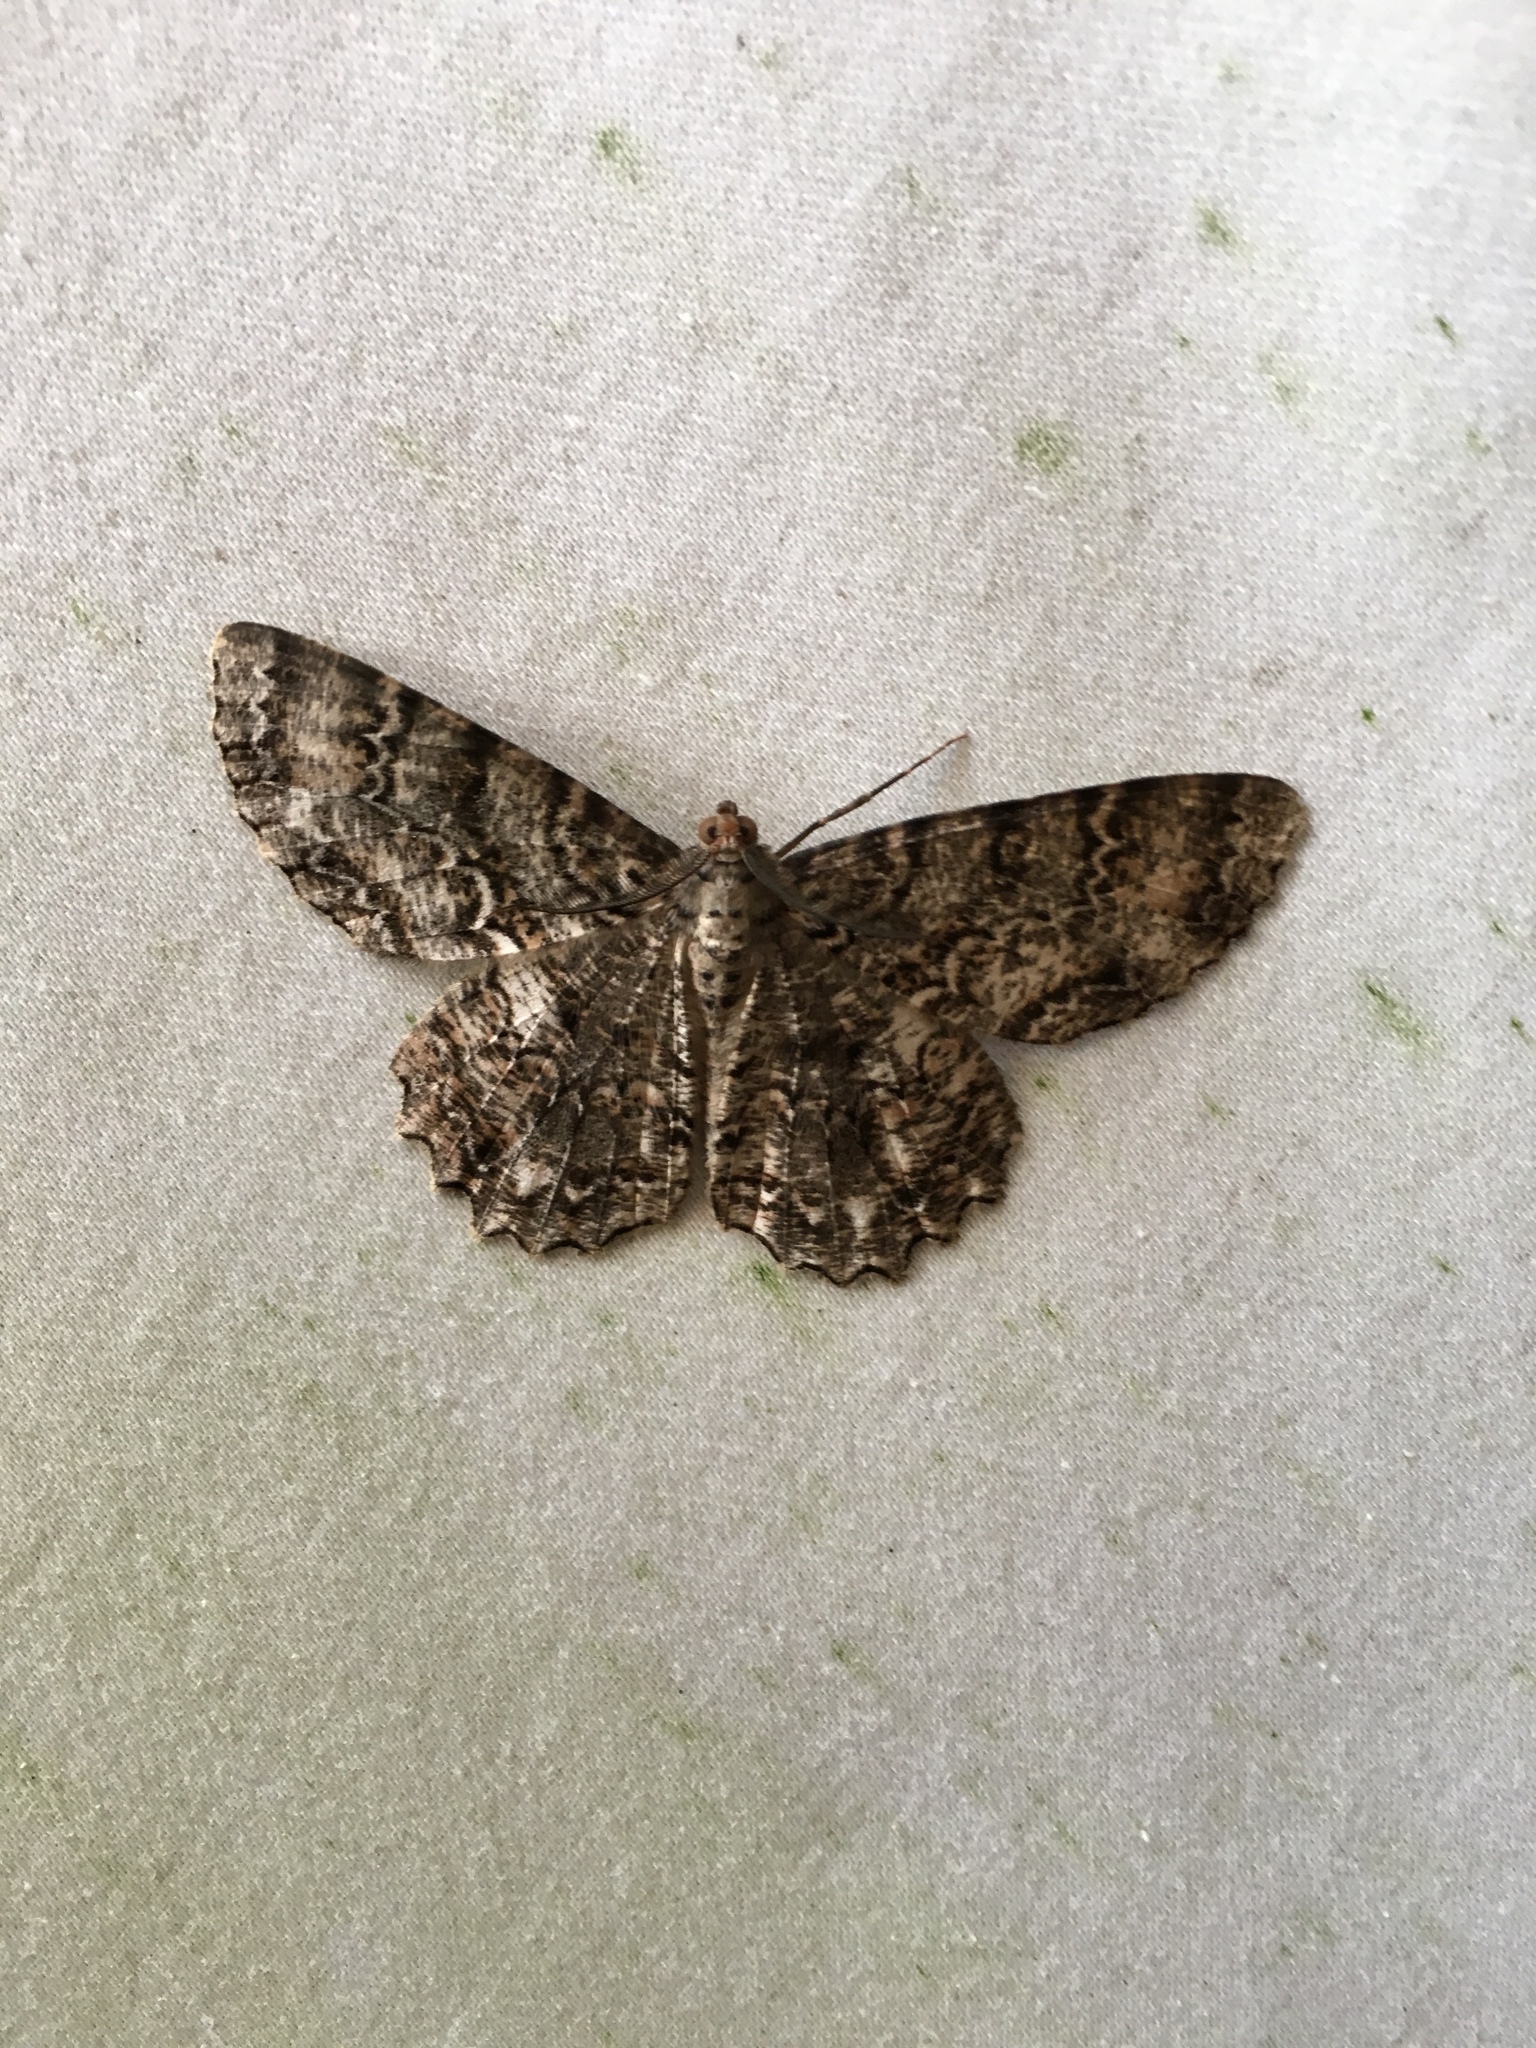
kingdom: Animalia
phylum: Arthropoda
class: Insecta
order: Lepidoptera
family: Geometridae
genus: Epimecis
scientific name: Epimecis hortaria
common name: Tulip-tree beauty
